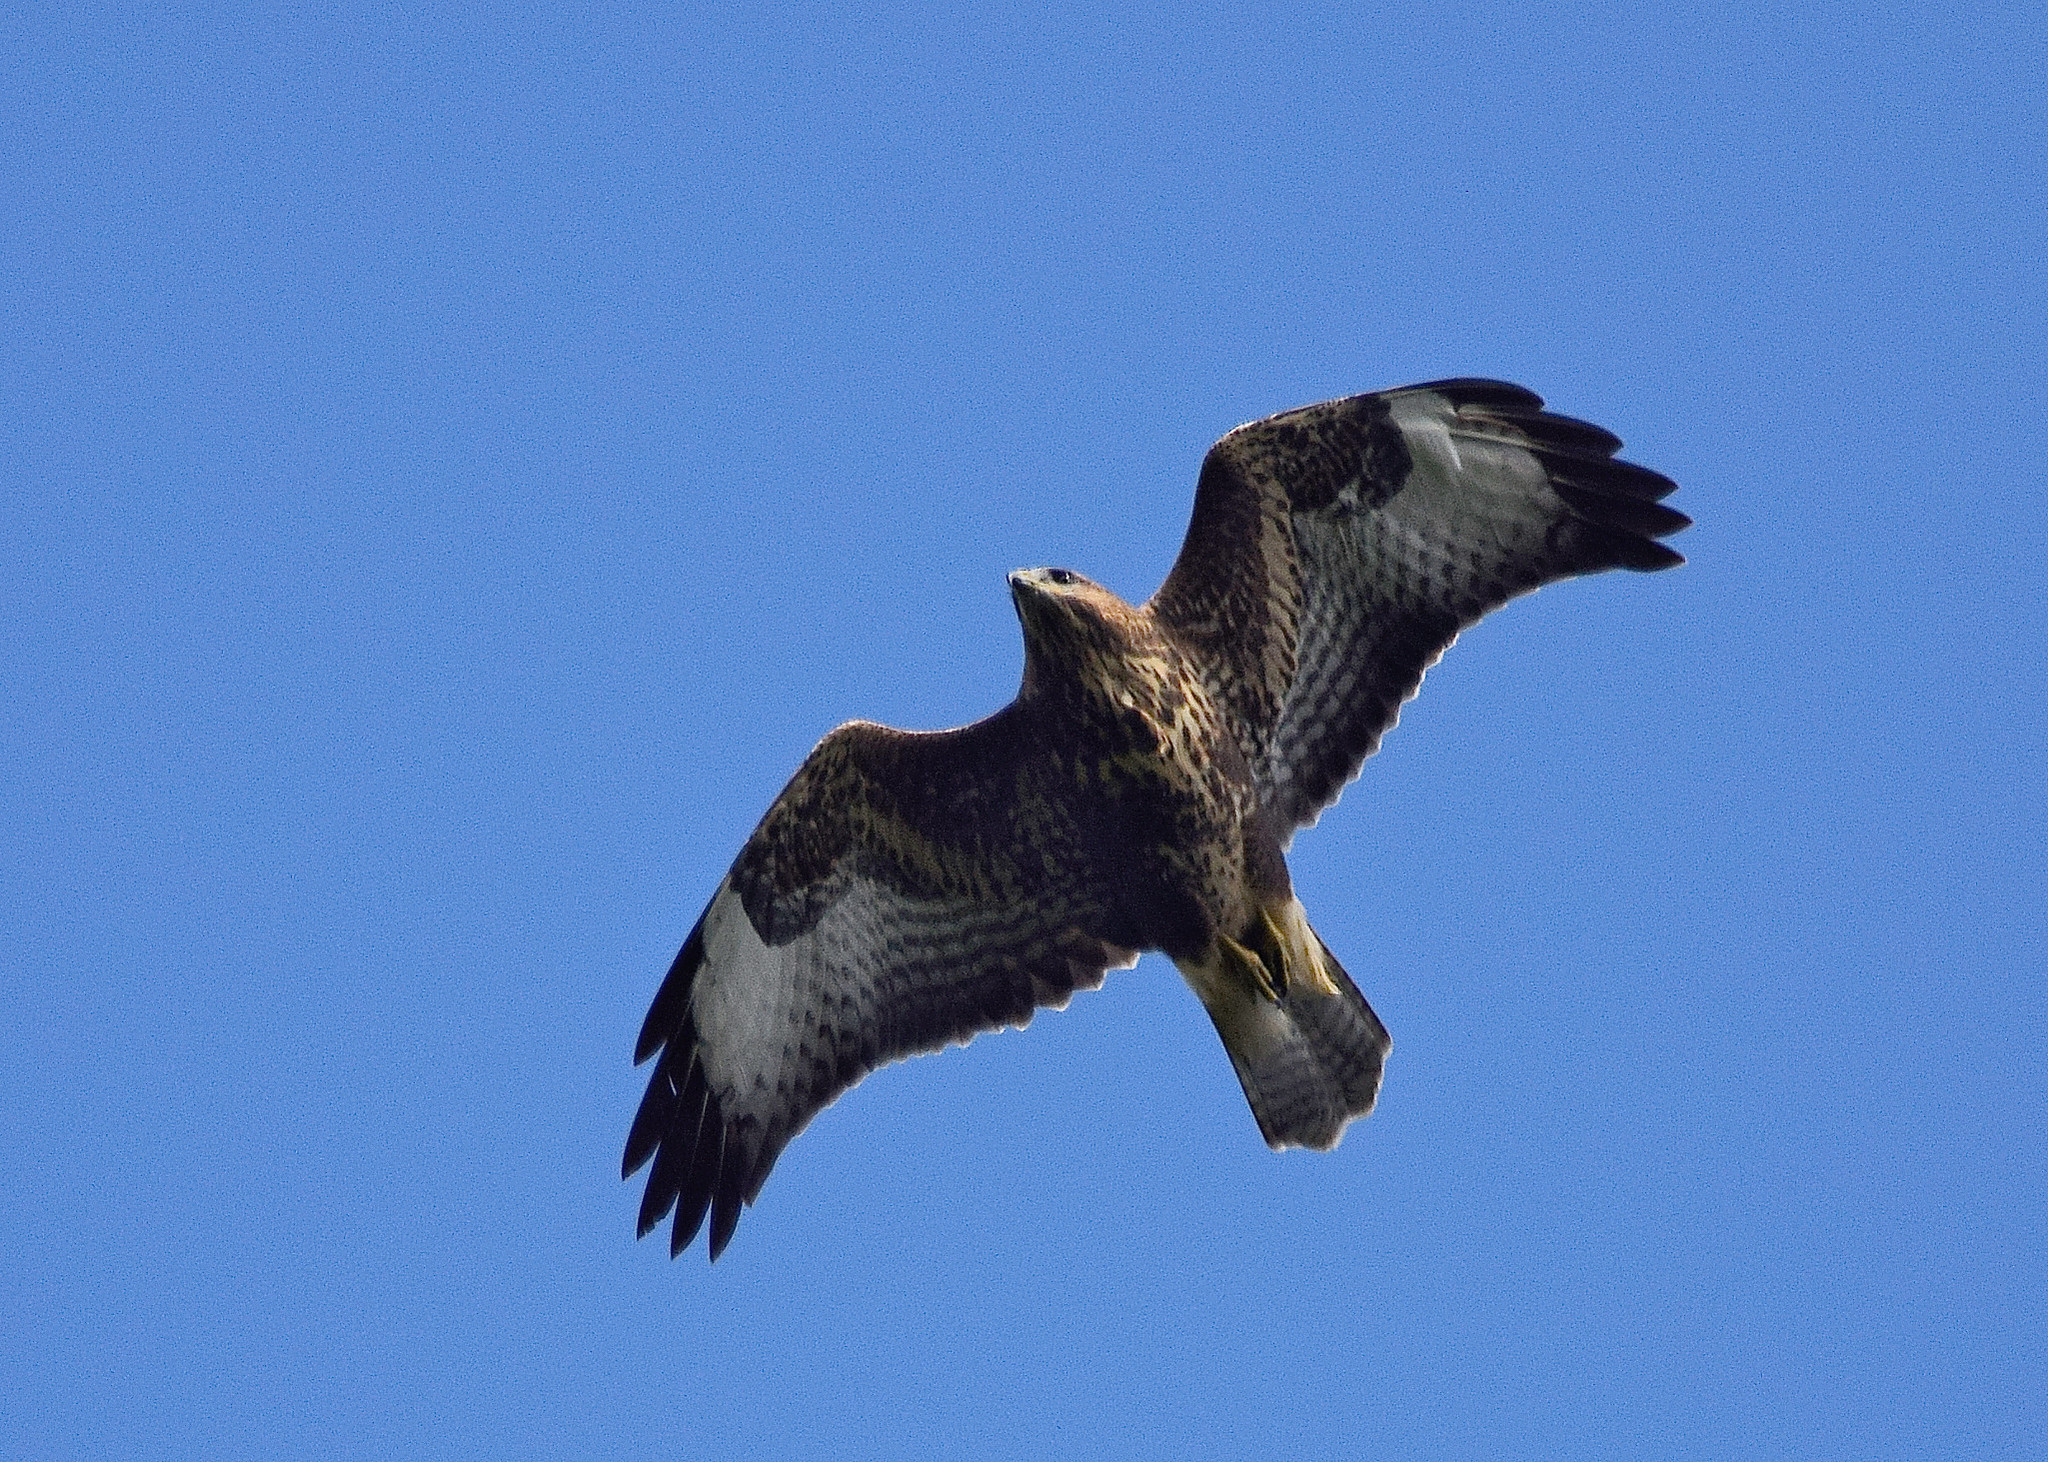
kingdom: Animalia
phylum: Chordata
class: Aves
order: Accipitriformes
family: Accipitridae
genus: Buteo
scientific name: Buteo buteo
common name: Common buzzard
